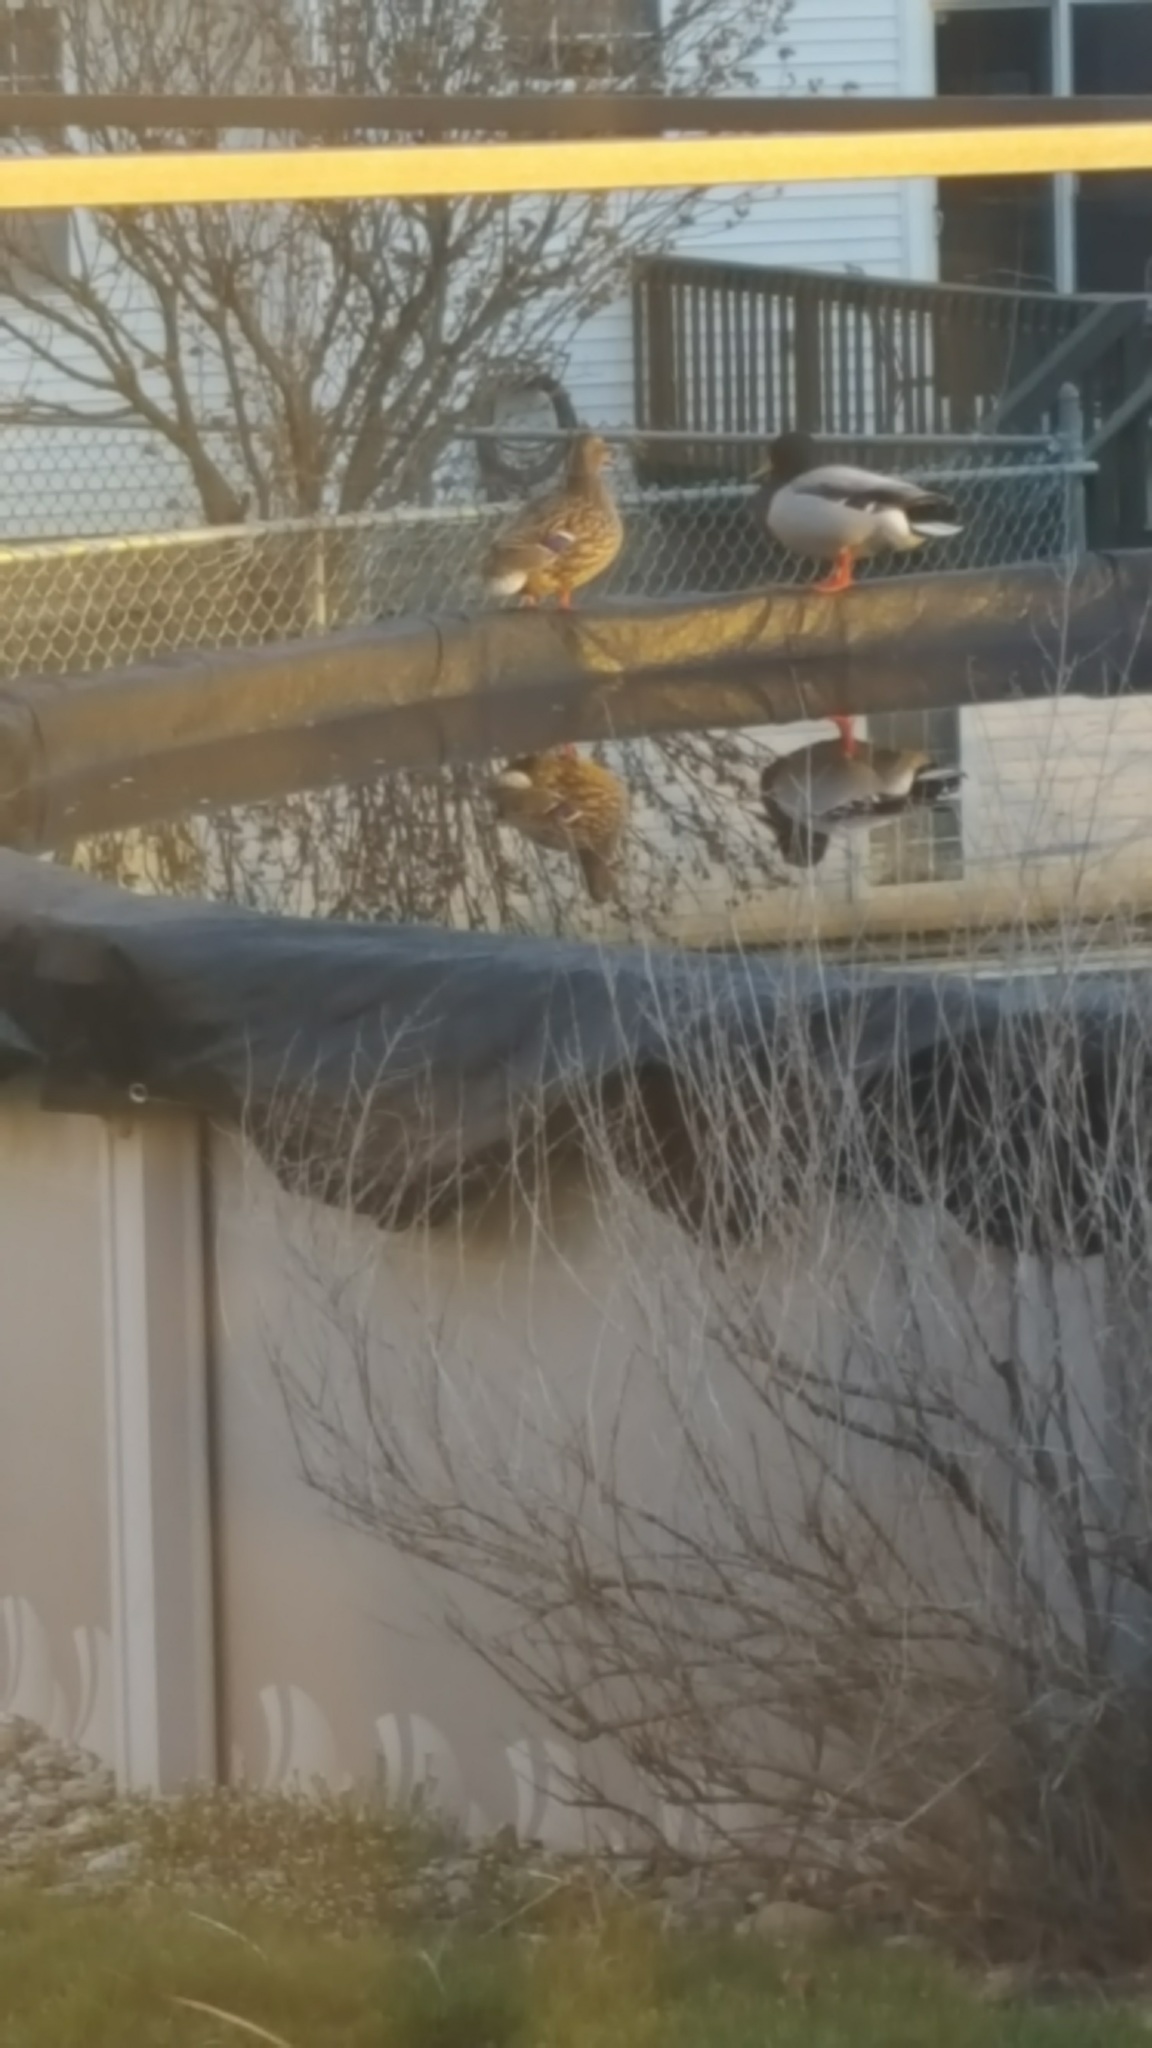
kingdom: Animalia
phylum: Chordata
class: Aves
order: Anseriformes
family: Anatidae
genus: Anas
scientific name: Anas platyrhynchos
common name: Mallard
